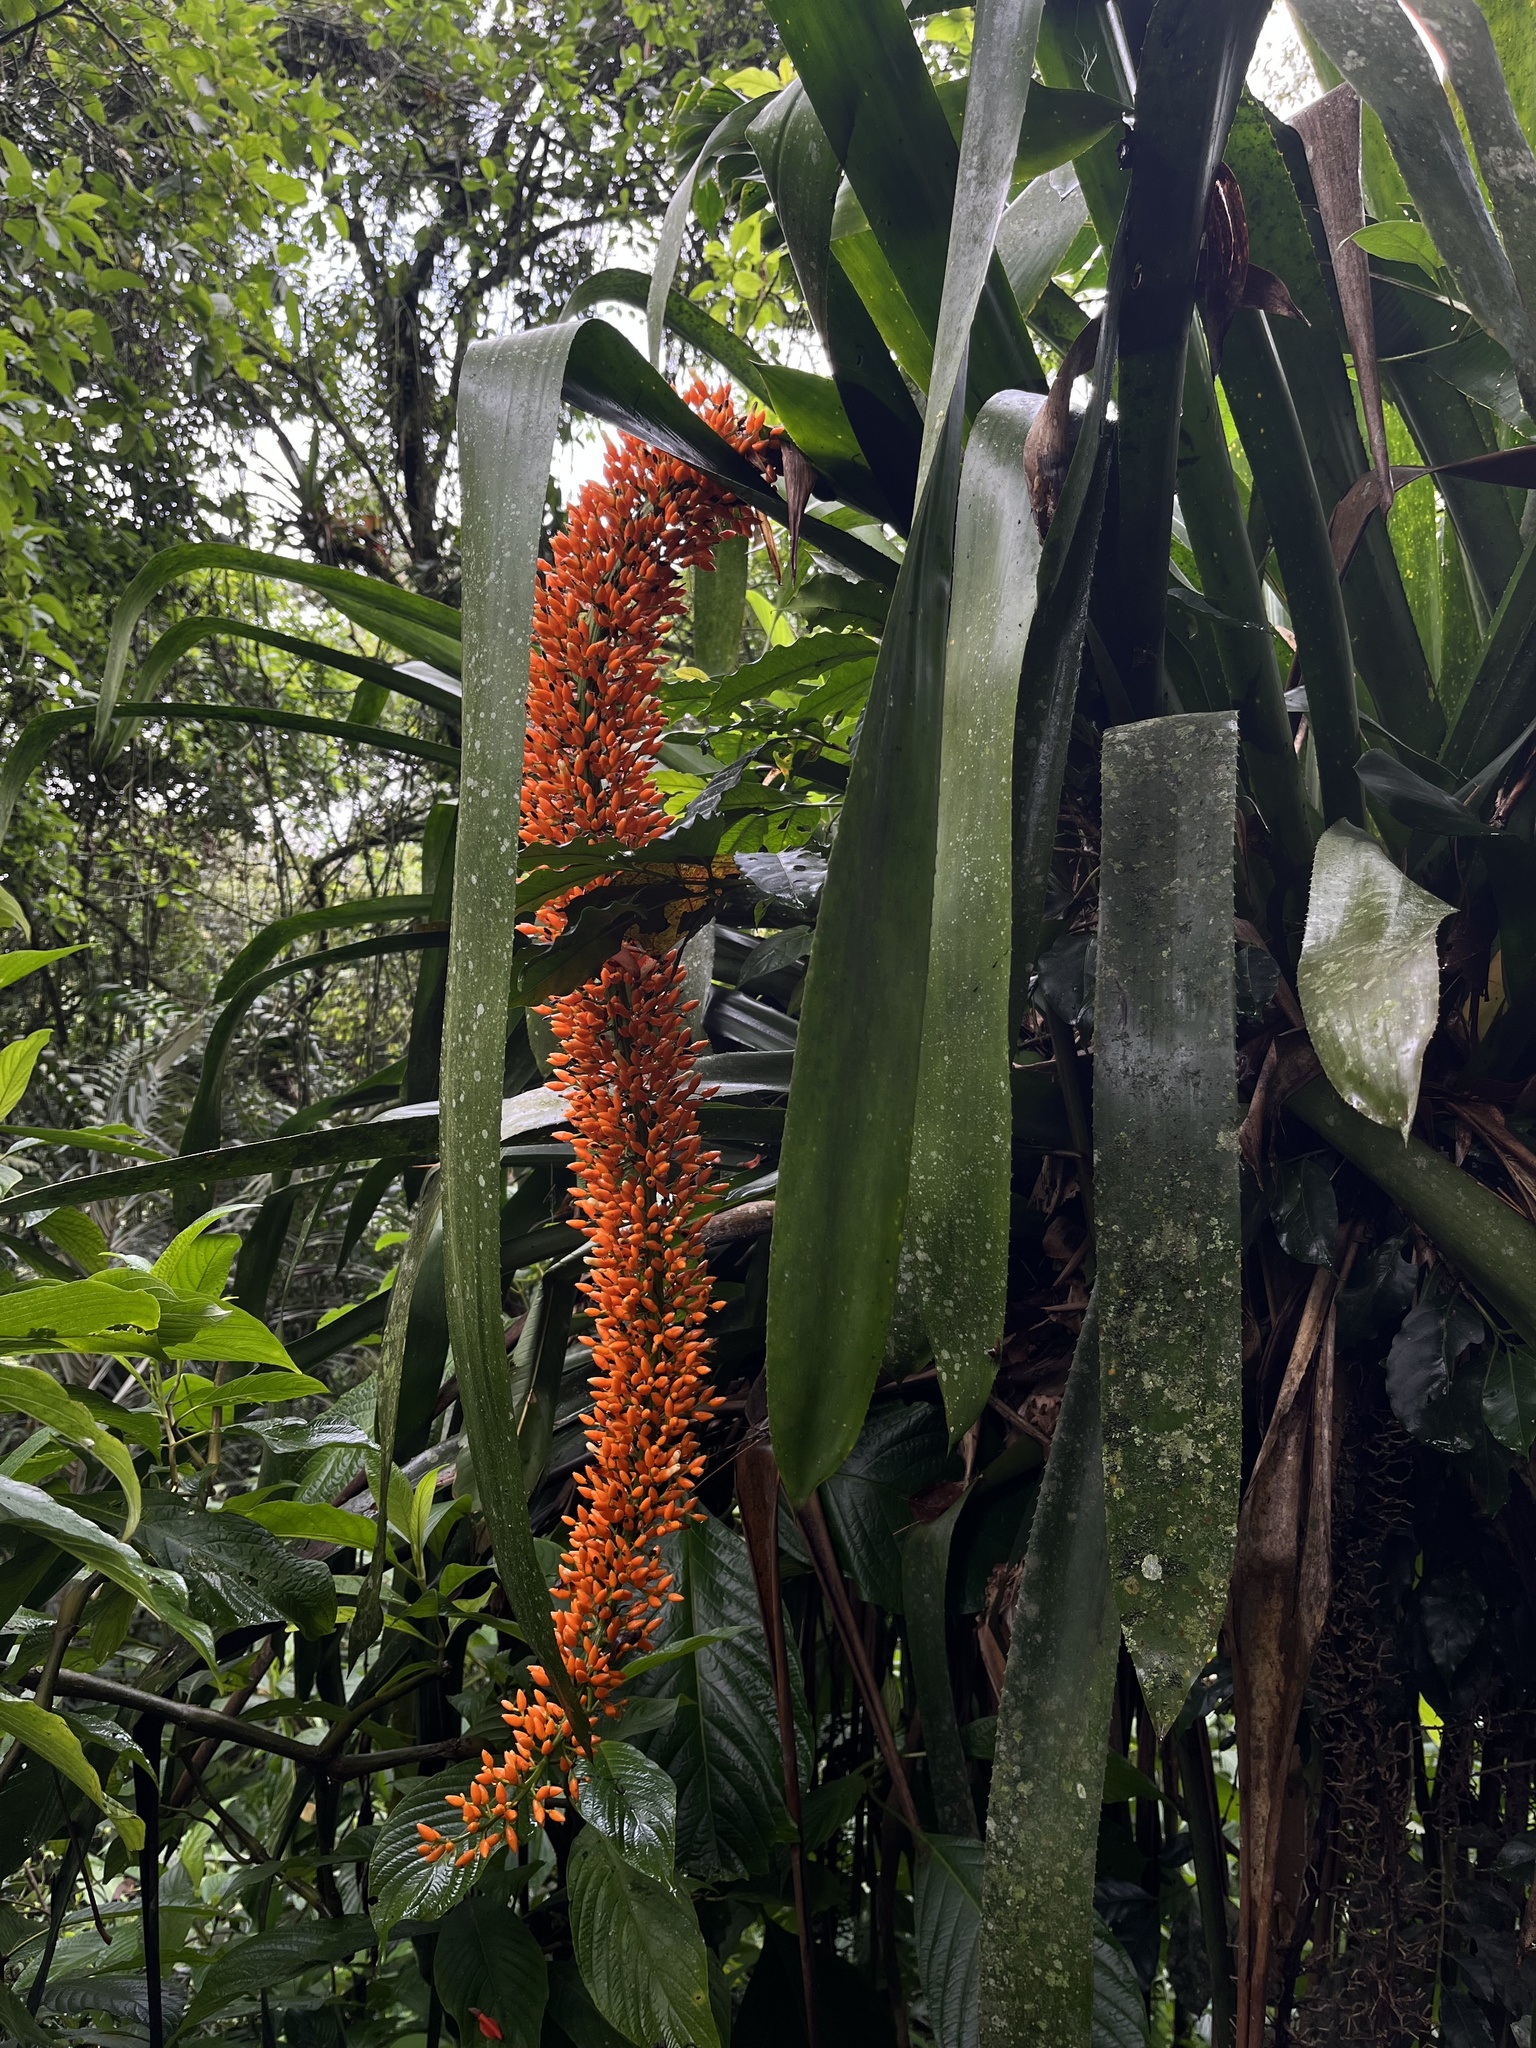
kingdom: Plantae
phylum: Tracheophyta
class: Liliopsida
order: Poales
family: Bromeliaceae
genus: Aechmea
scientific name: Aechmea latifolia
